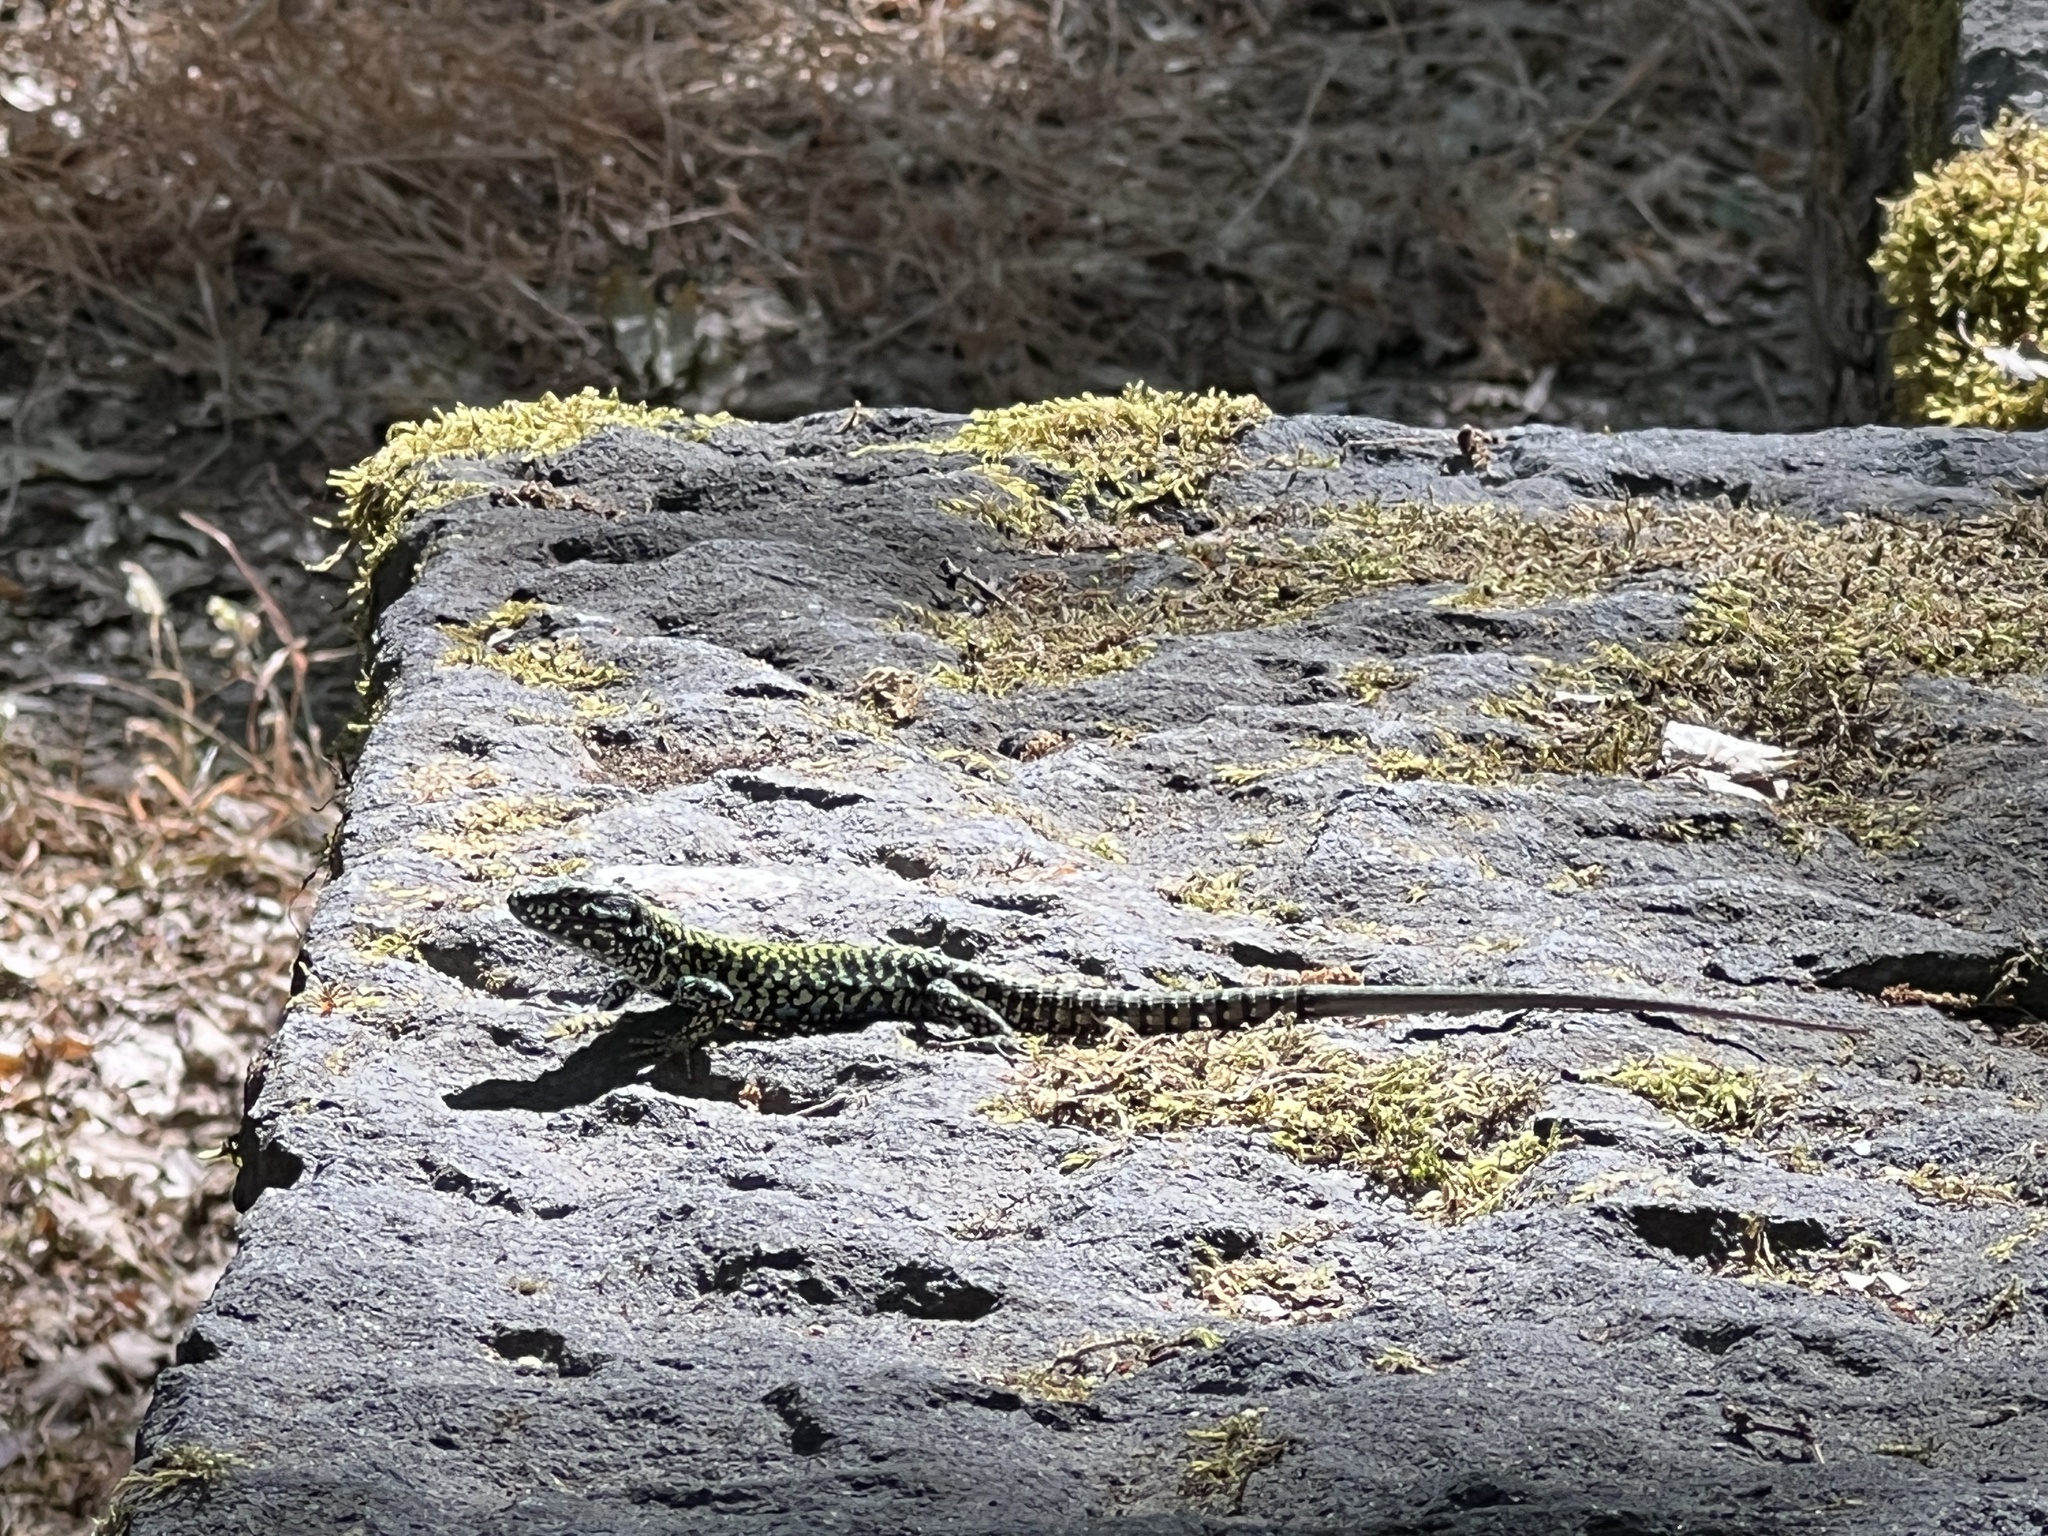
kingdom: Animalia
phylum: Chordata
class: Squamata
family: Lacertidae
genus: Podarcis
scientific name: Podarcis muralis
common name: Common wall lizard
